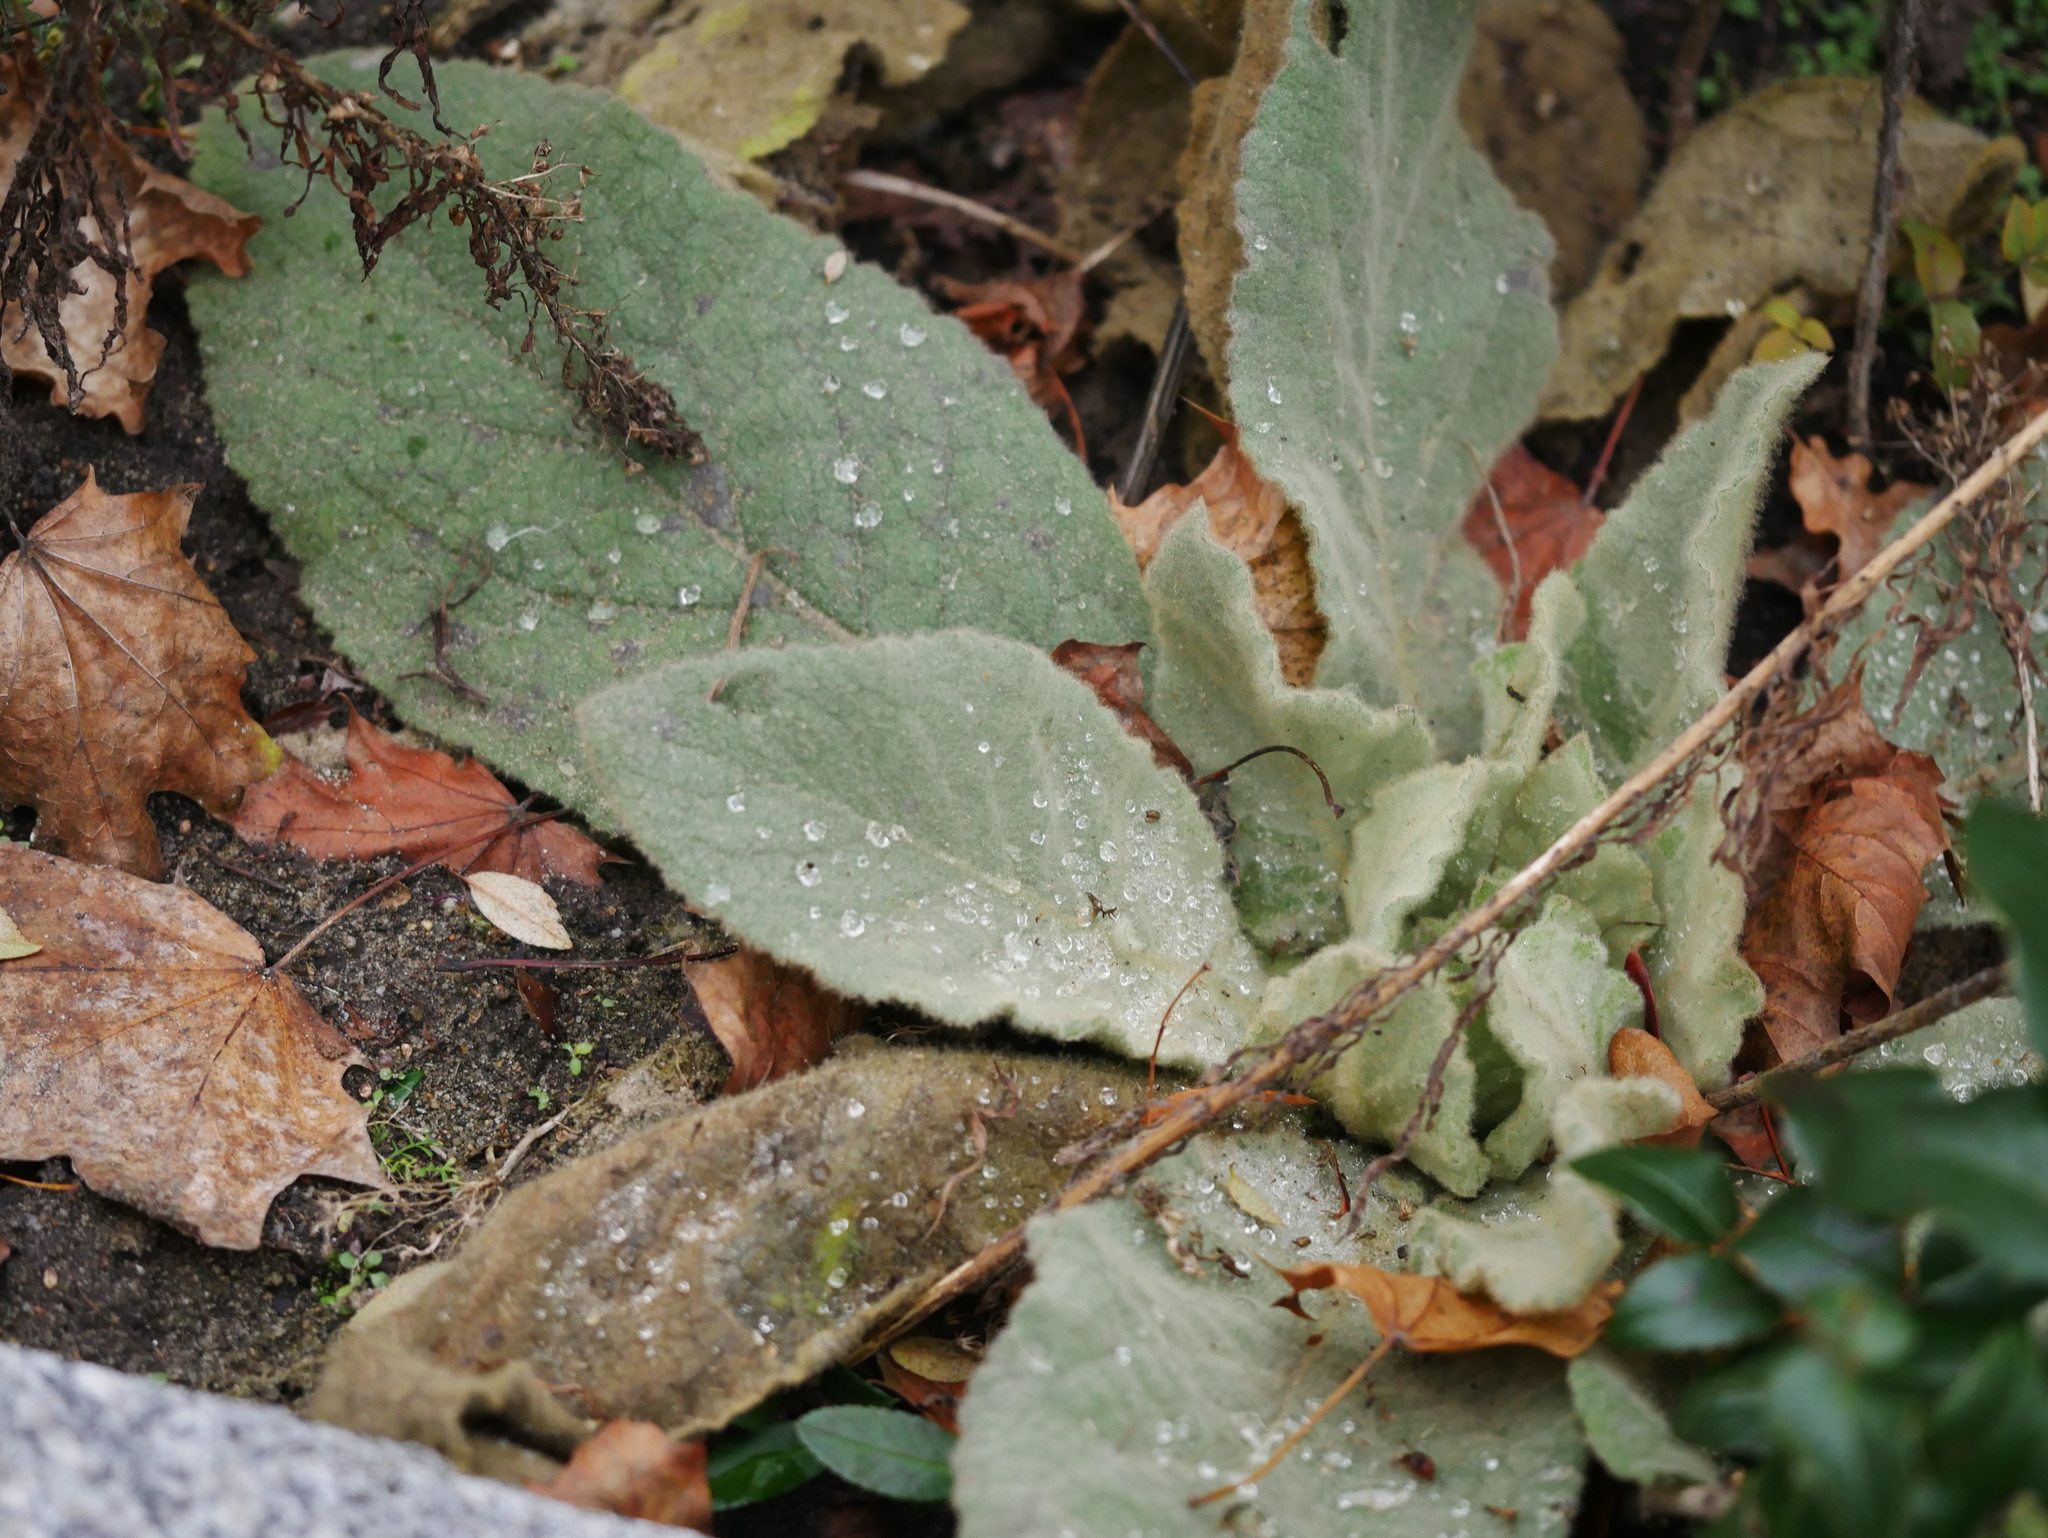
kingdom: Plantae
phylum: Tracheophyta
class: Magnoliopsida
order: Lamiales
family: Scrophulariaceae
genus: Verbascum
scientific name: Verbascum thapsus
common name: Common mullein
